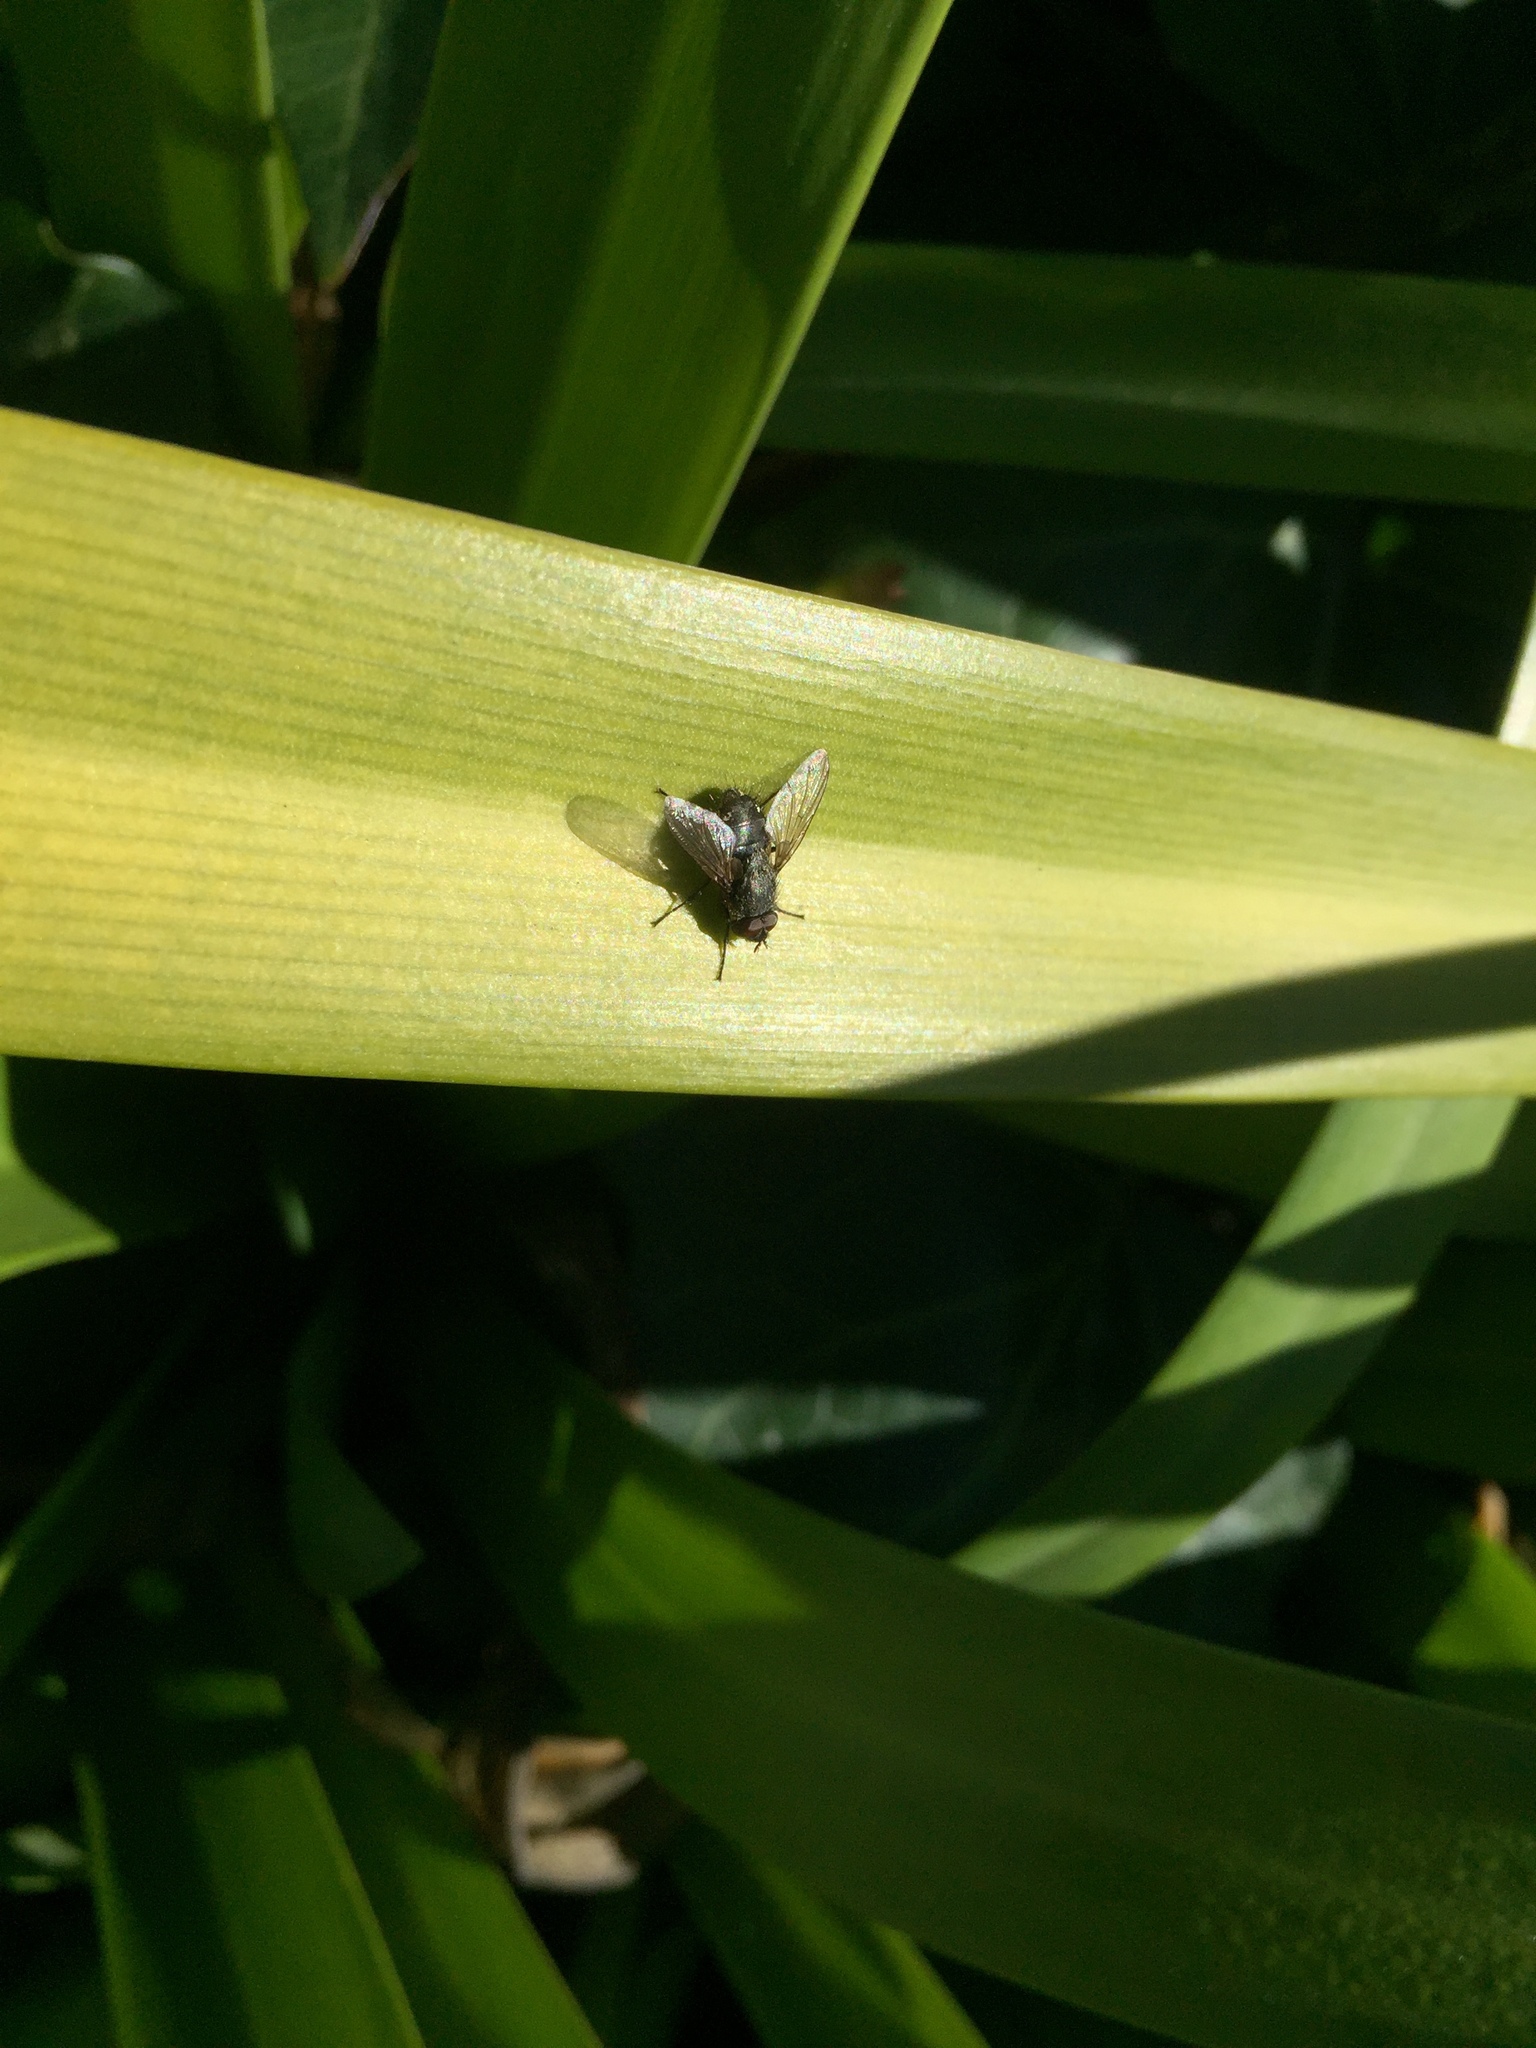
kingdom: Animalia
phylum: Arthropoda
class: Insecta
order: Diptera
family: Polleniidae
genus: Pollenia
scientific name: Pollenia pediculata
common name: Tufted clusterfly
